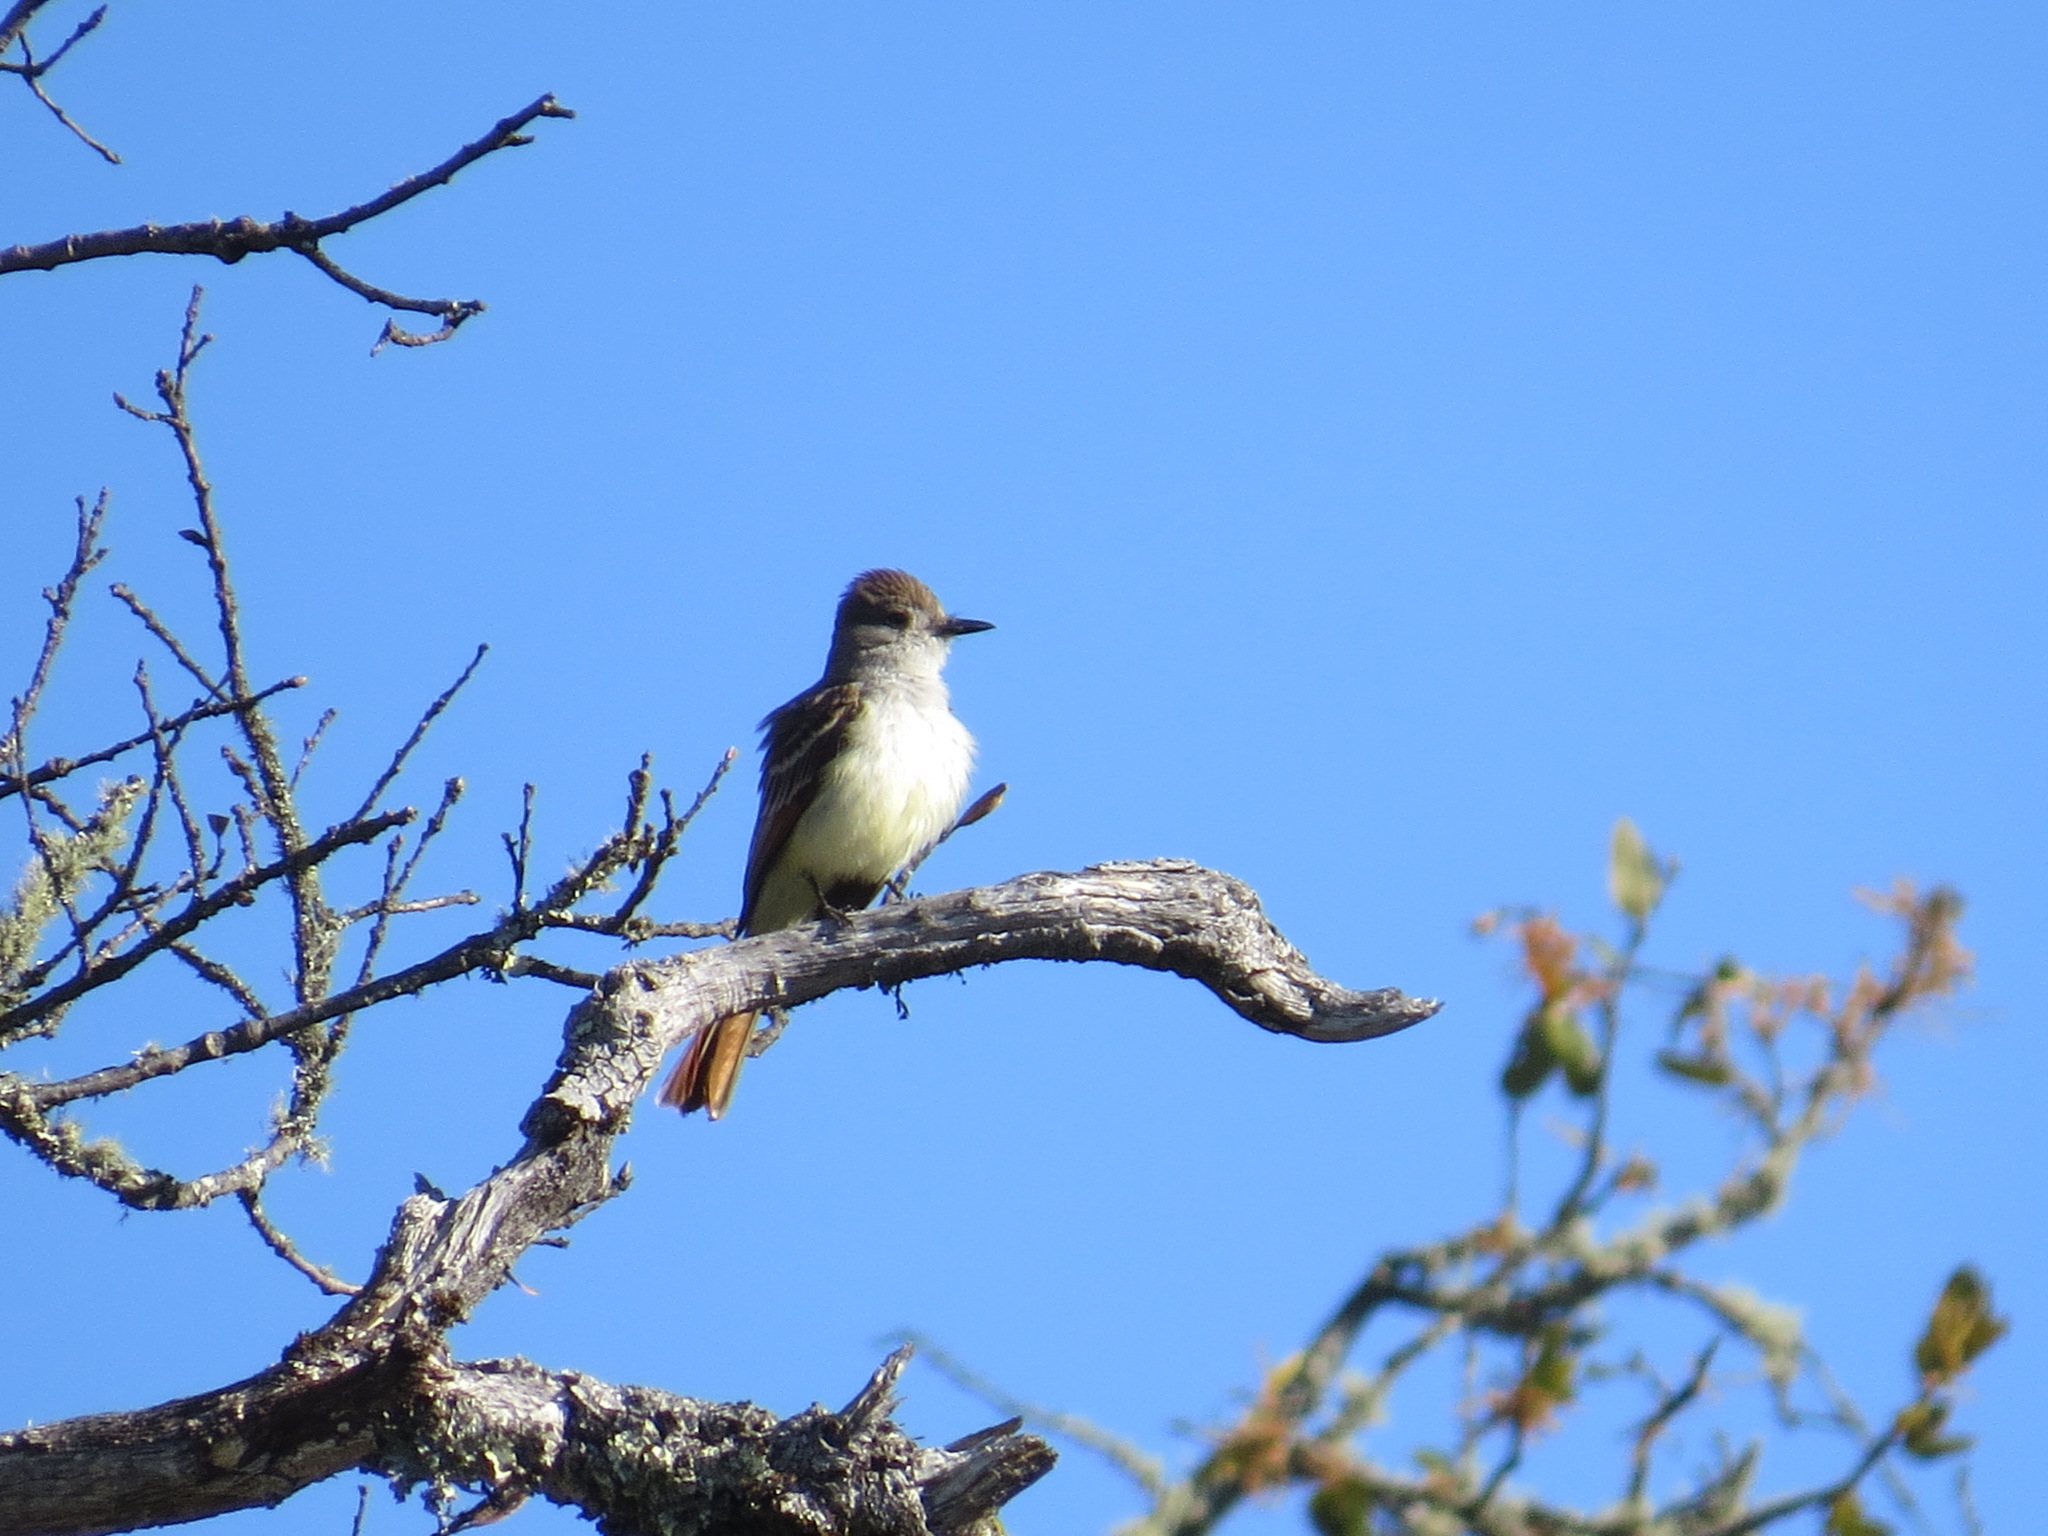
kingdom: Animalia
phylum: Chordata
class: Aves
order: Passeriformes
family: Tyrannidae
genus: Myiarchus
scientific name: Myiarchus cinerascens
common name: Ash-throated flycatcher
